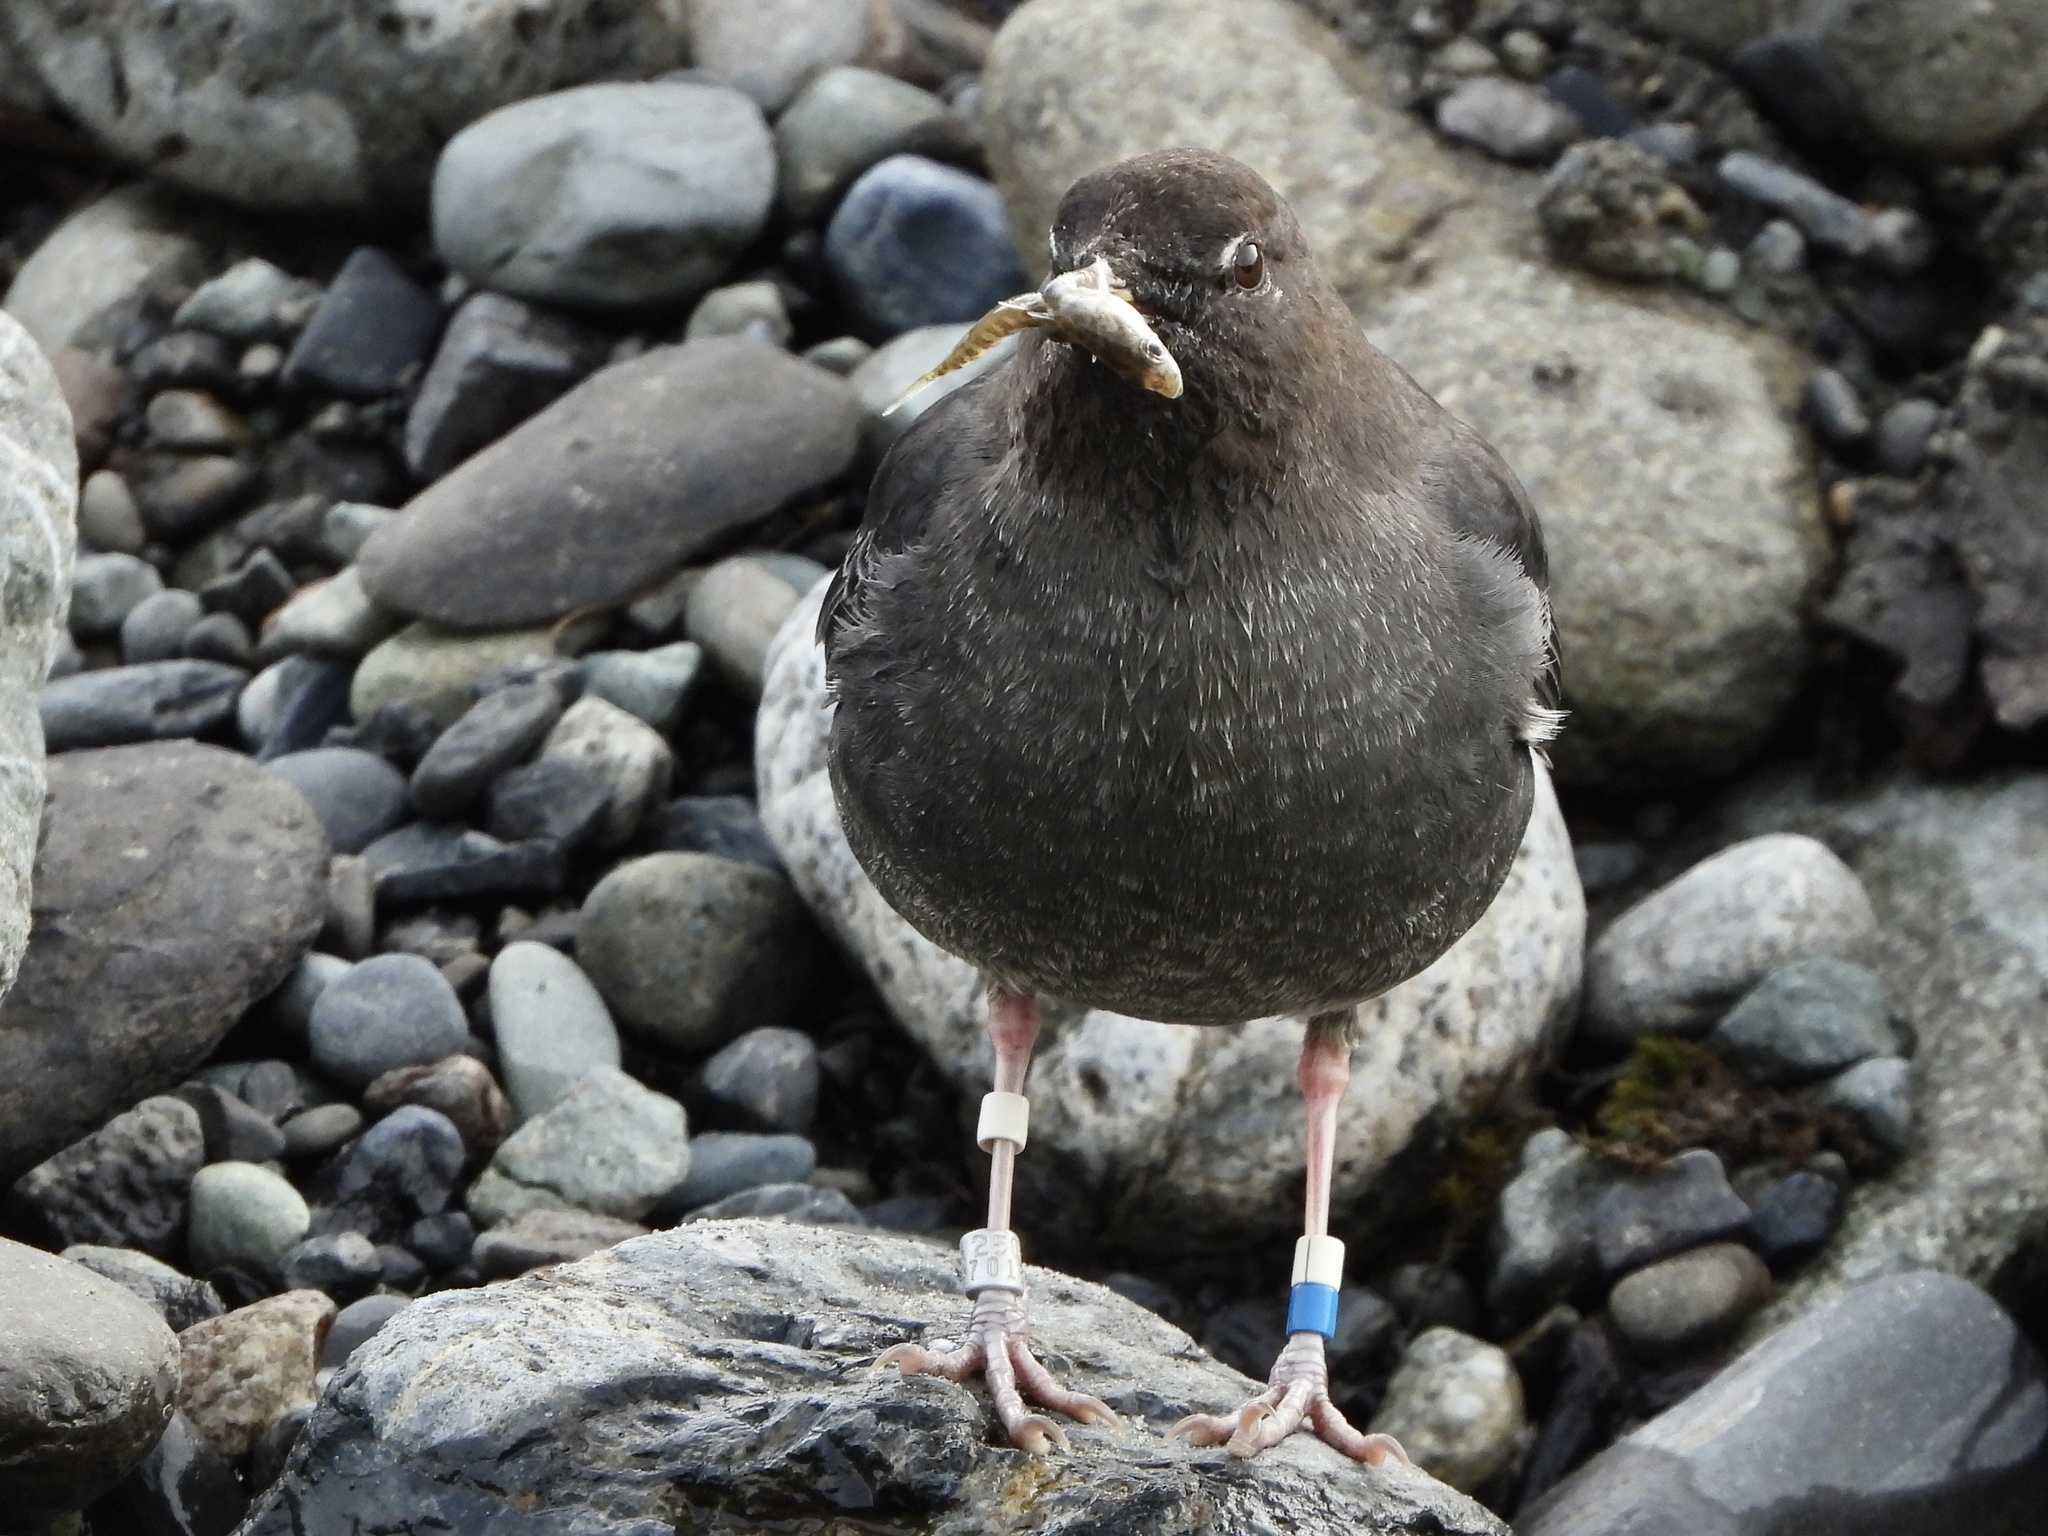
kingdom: Animalia
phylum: Chordata
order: Gasterosteiformes
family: Gasterosteidae
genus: Gasterosteus
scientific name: Gasterosteus aculeatus
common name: Three-spined stickleback
